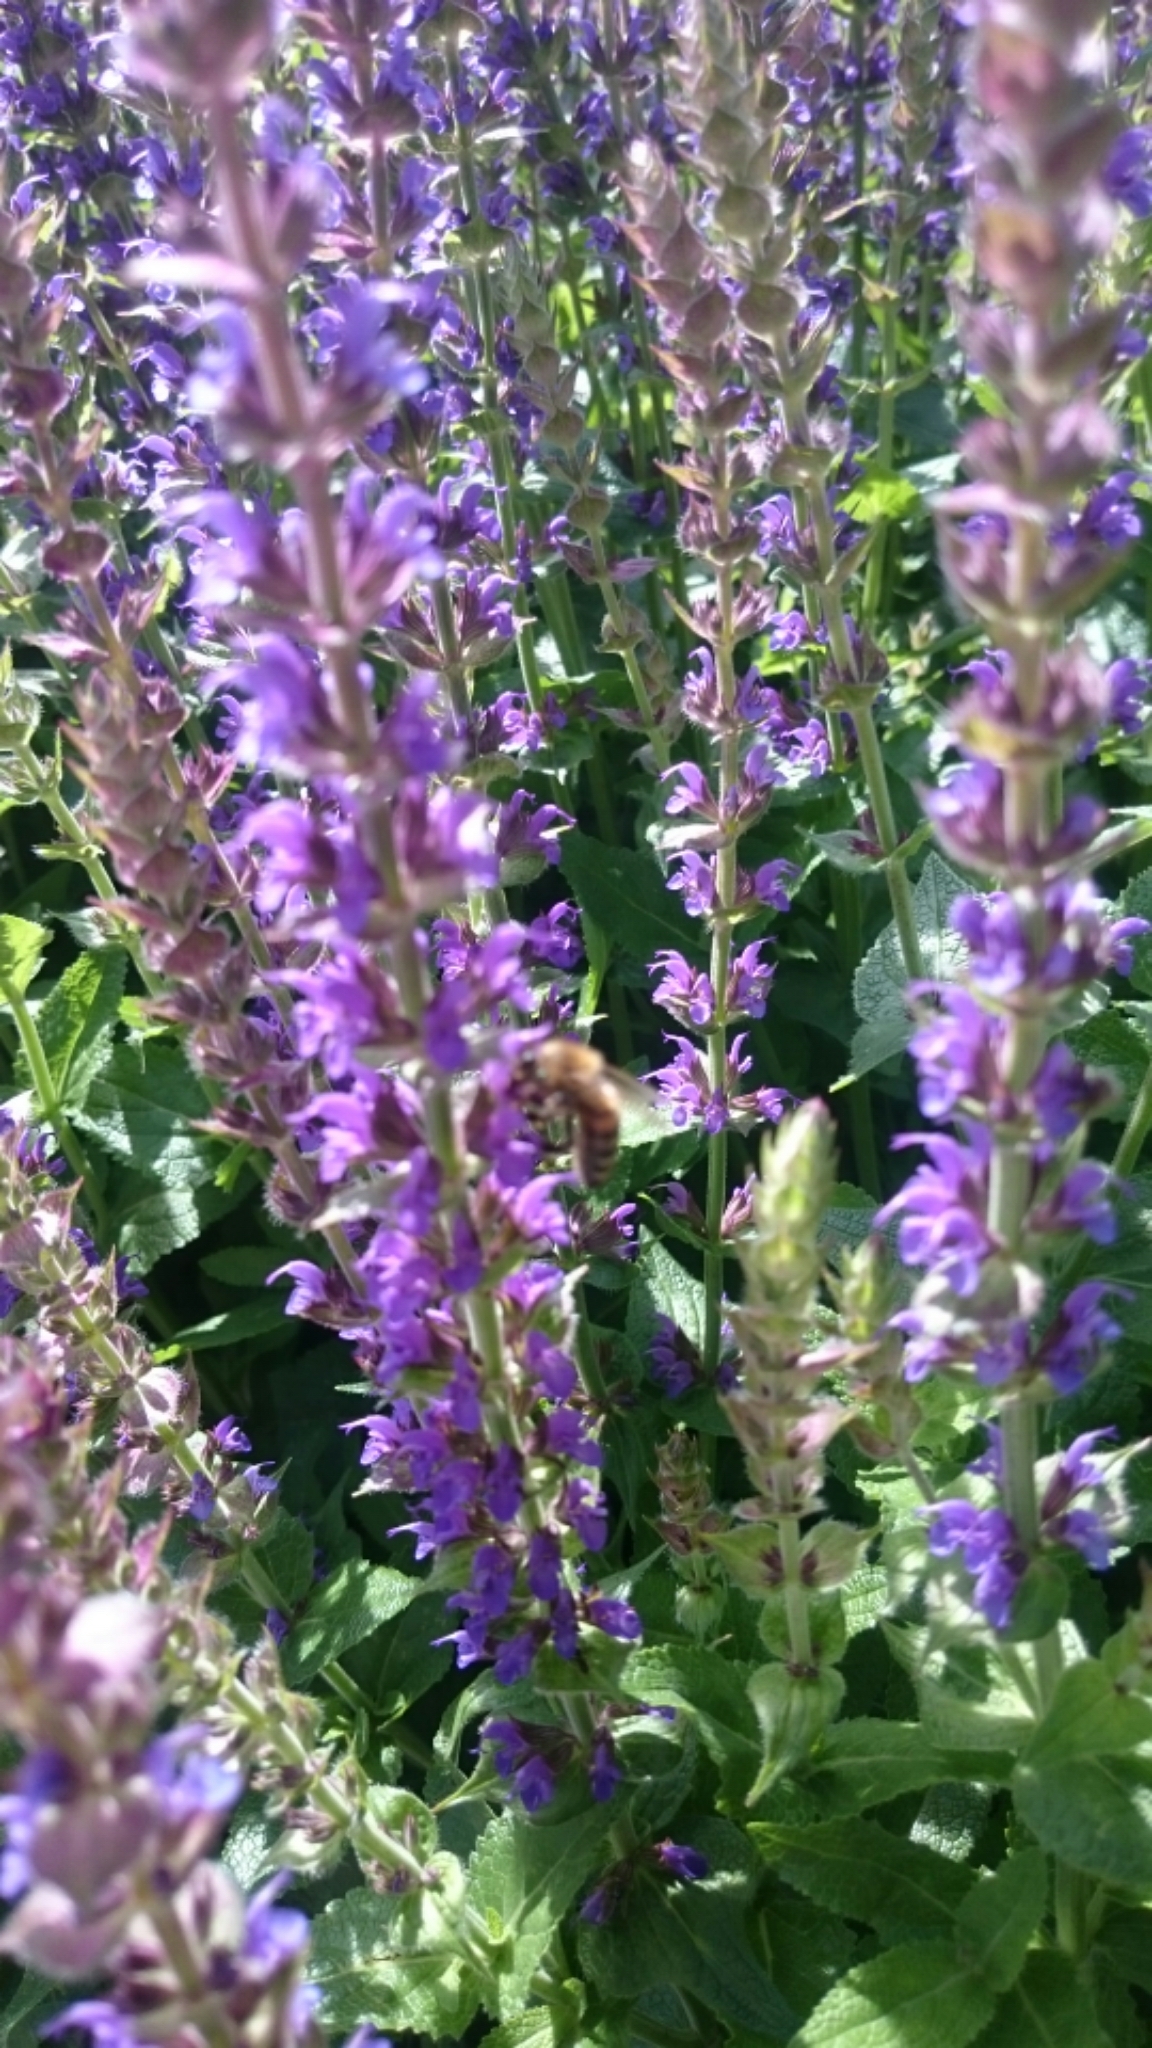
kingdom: Animalia
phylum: Arthropoda
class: Insecta
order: Hymenoptera
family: Apidae
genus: Apis
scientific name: Apis mellifera
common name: Honey bee
